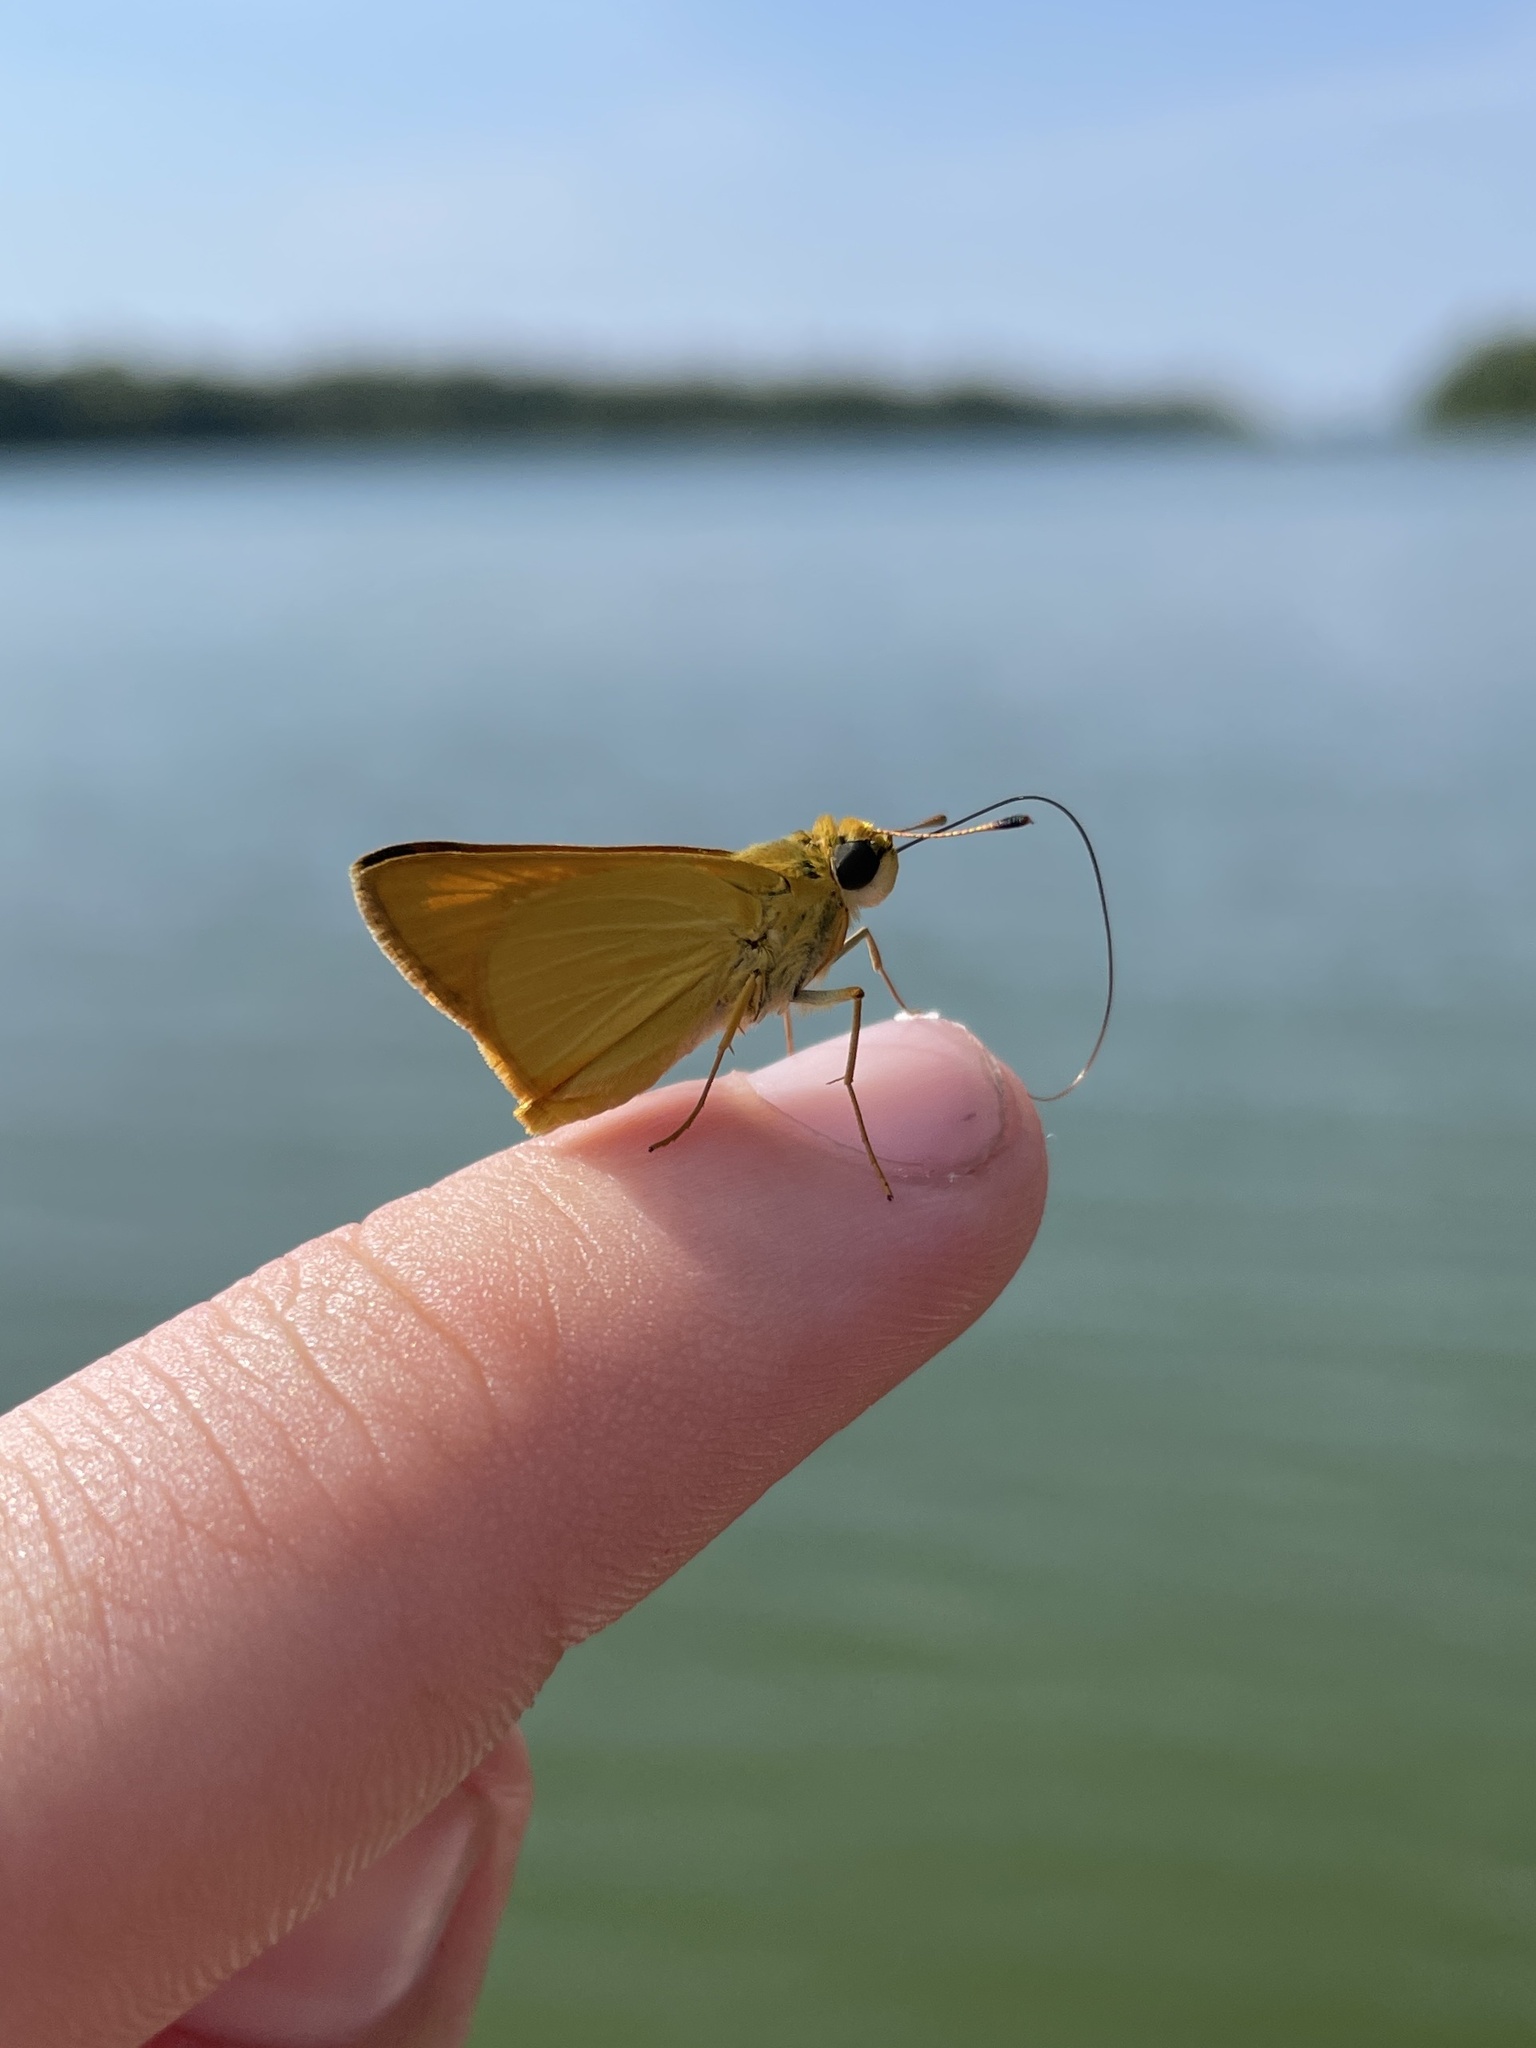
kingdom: Animalia
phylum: Arthropoda
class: Insecta
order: Lepidoptera
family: Hesperiidae
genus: Atrytone
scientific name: Atrytone delaware
